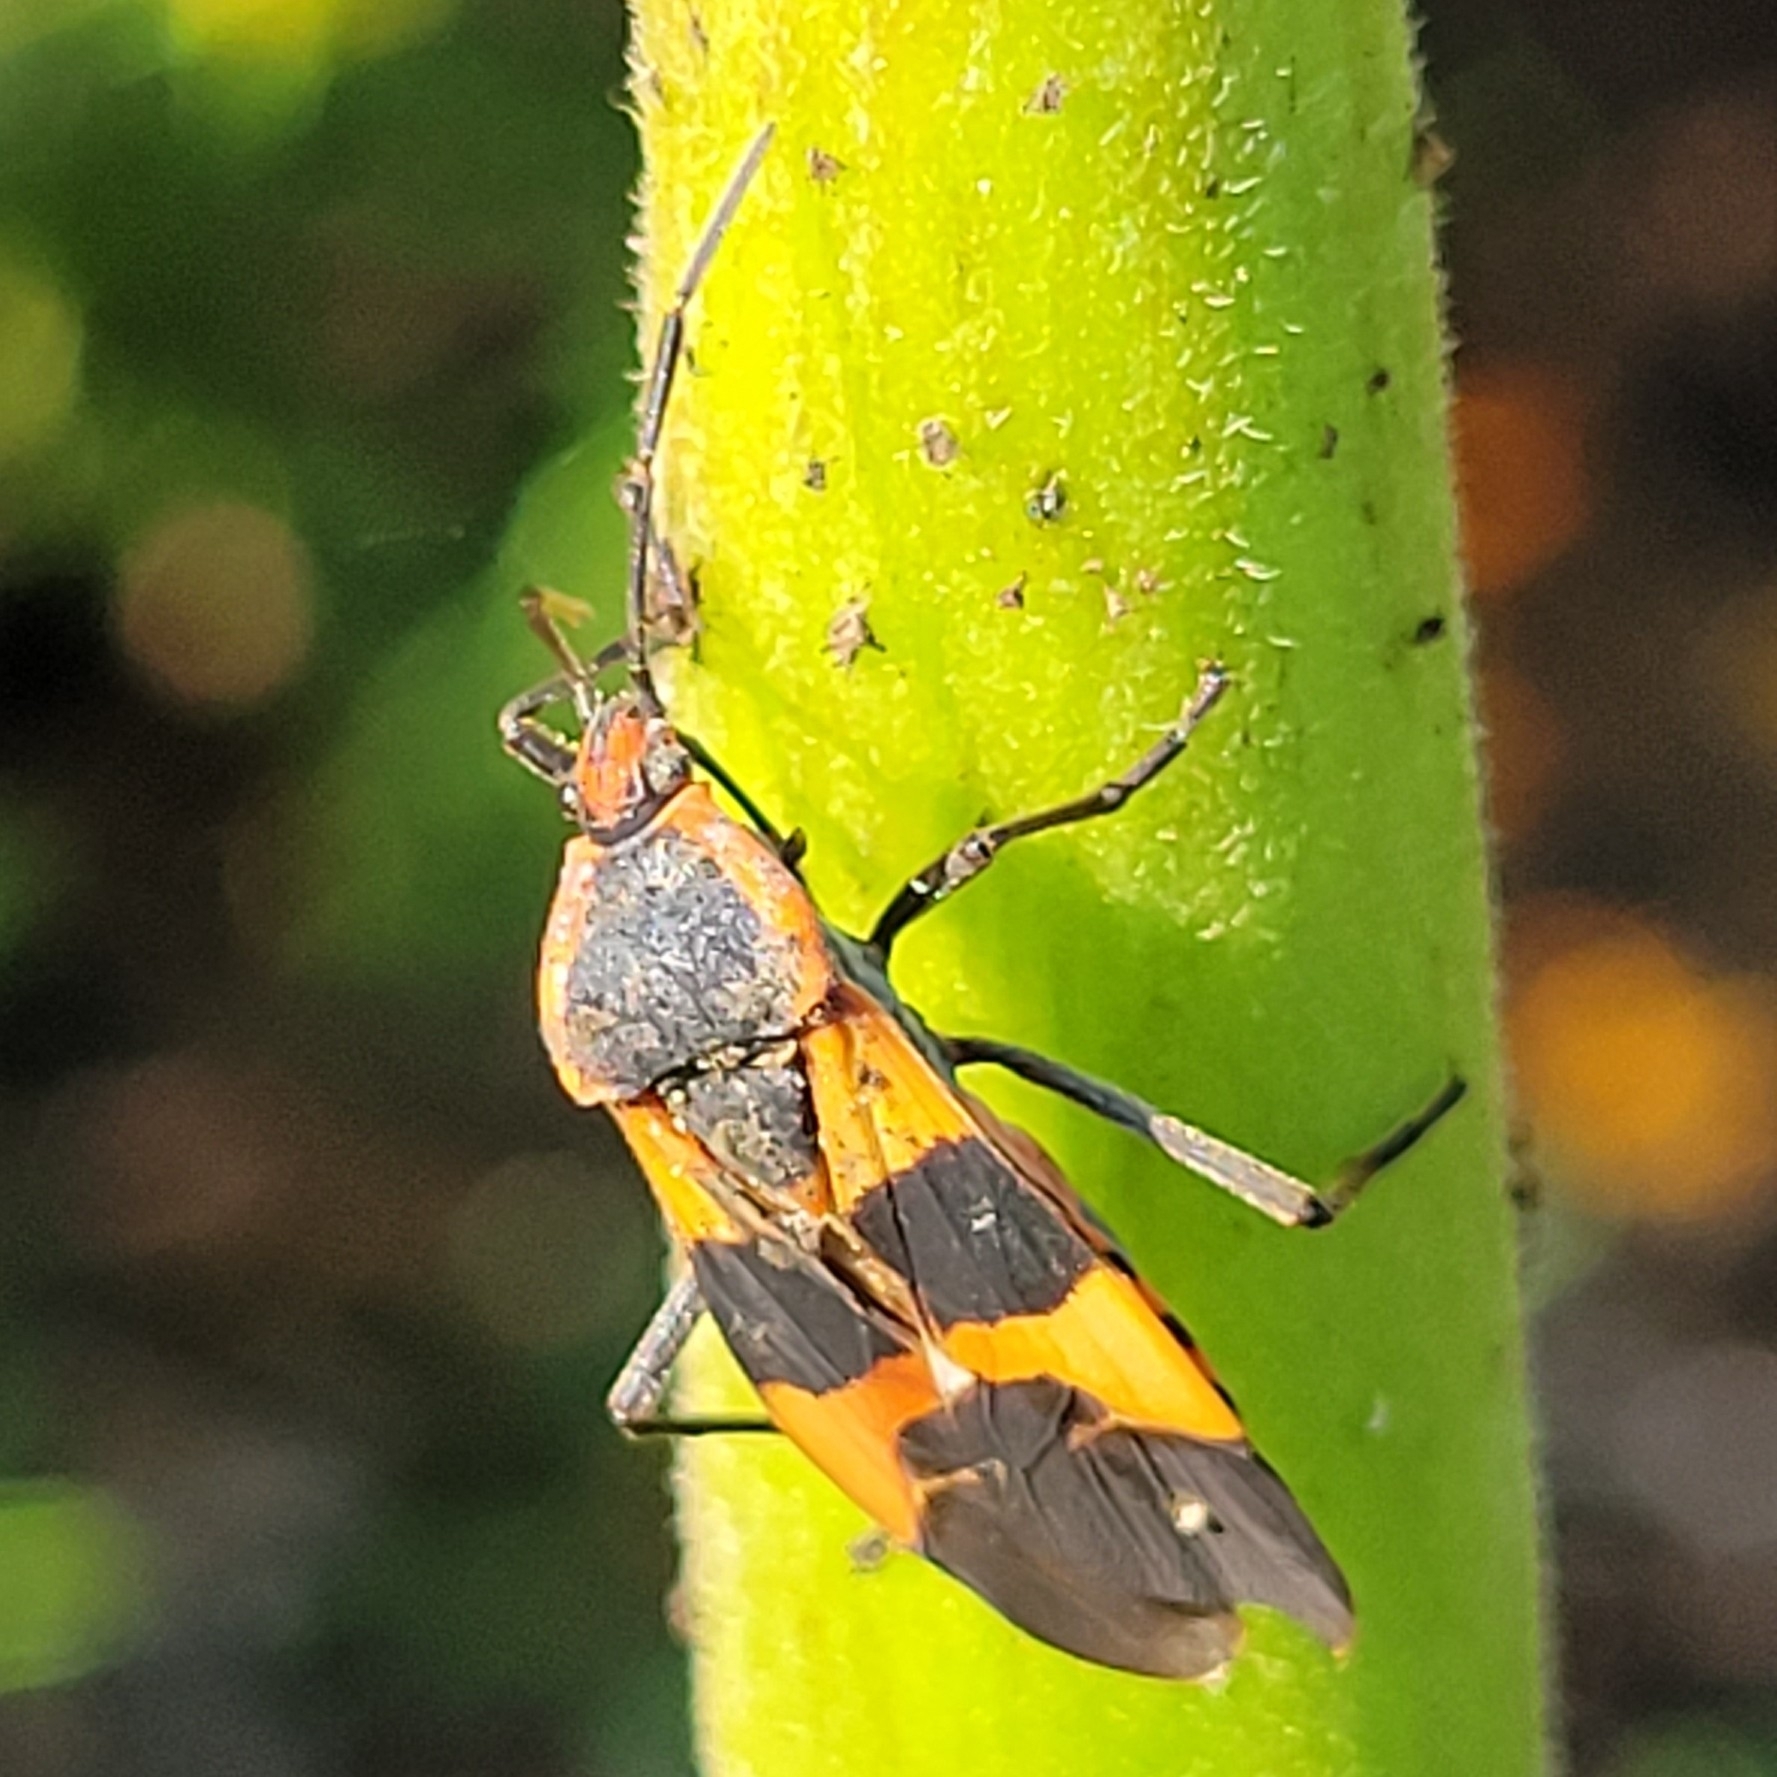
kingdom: Animalia
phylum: Arthropoda
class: Insecta
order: Hemiptera
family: Lygaeidae
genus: Oncopeltus
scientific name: Oncopeltus fasciatus
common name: Large milkweed bug
